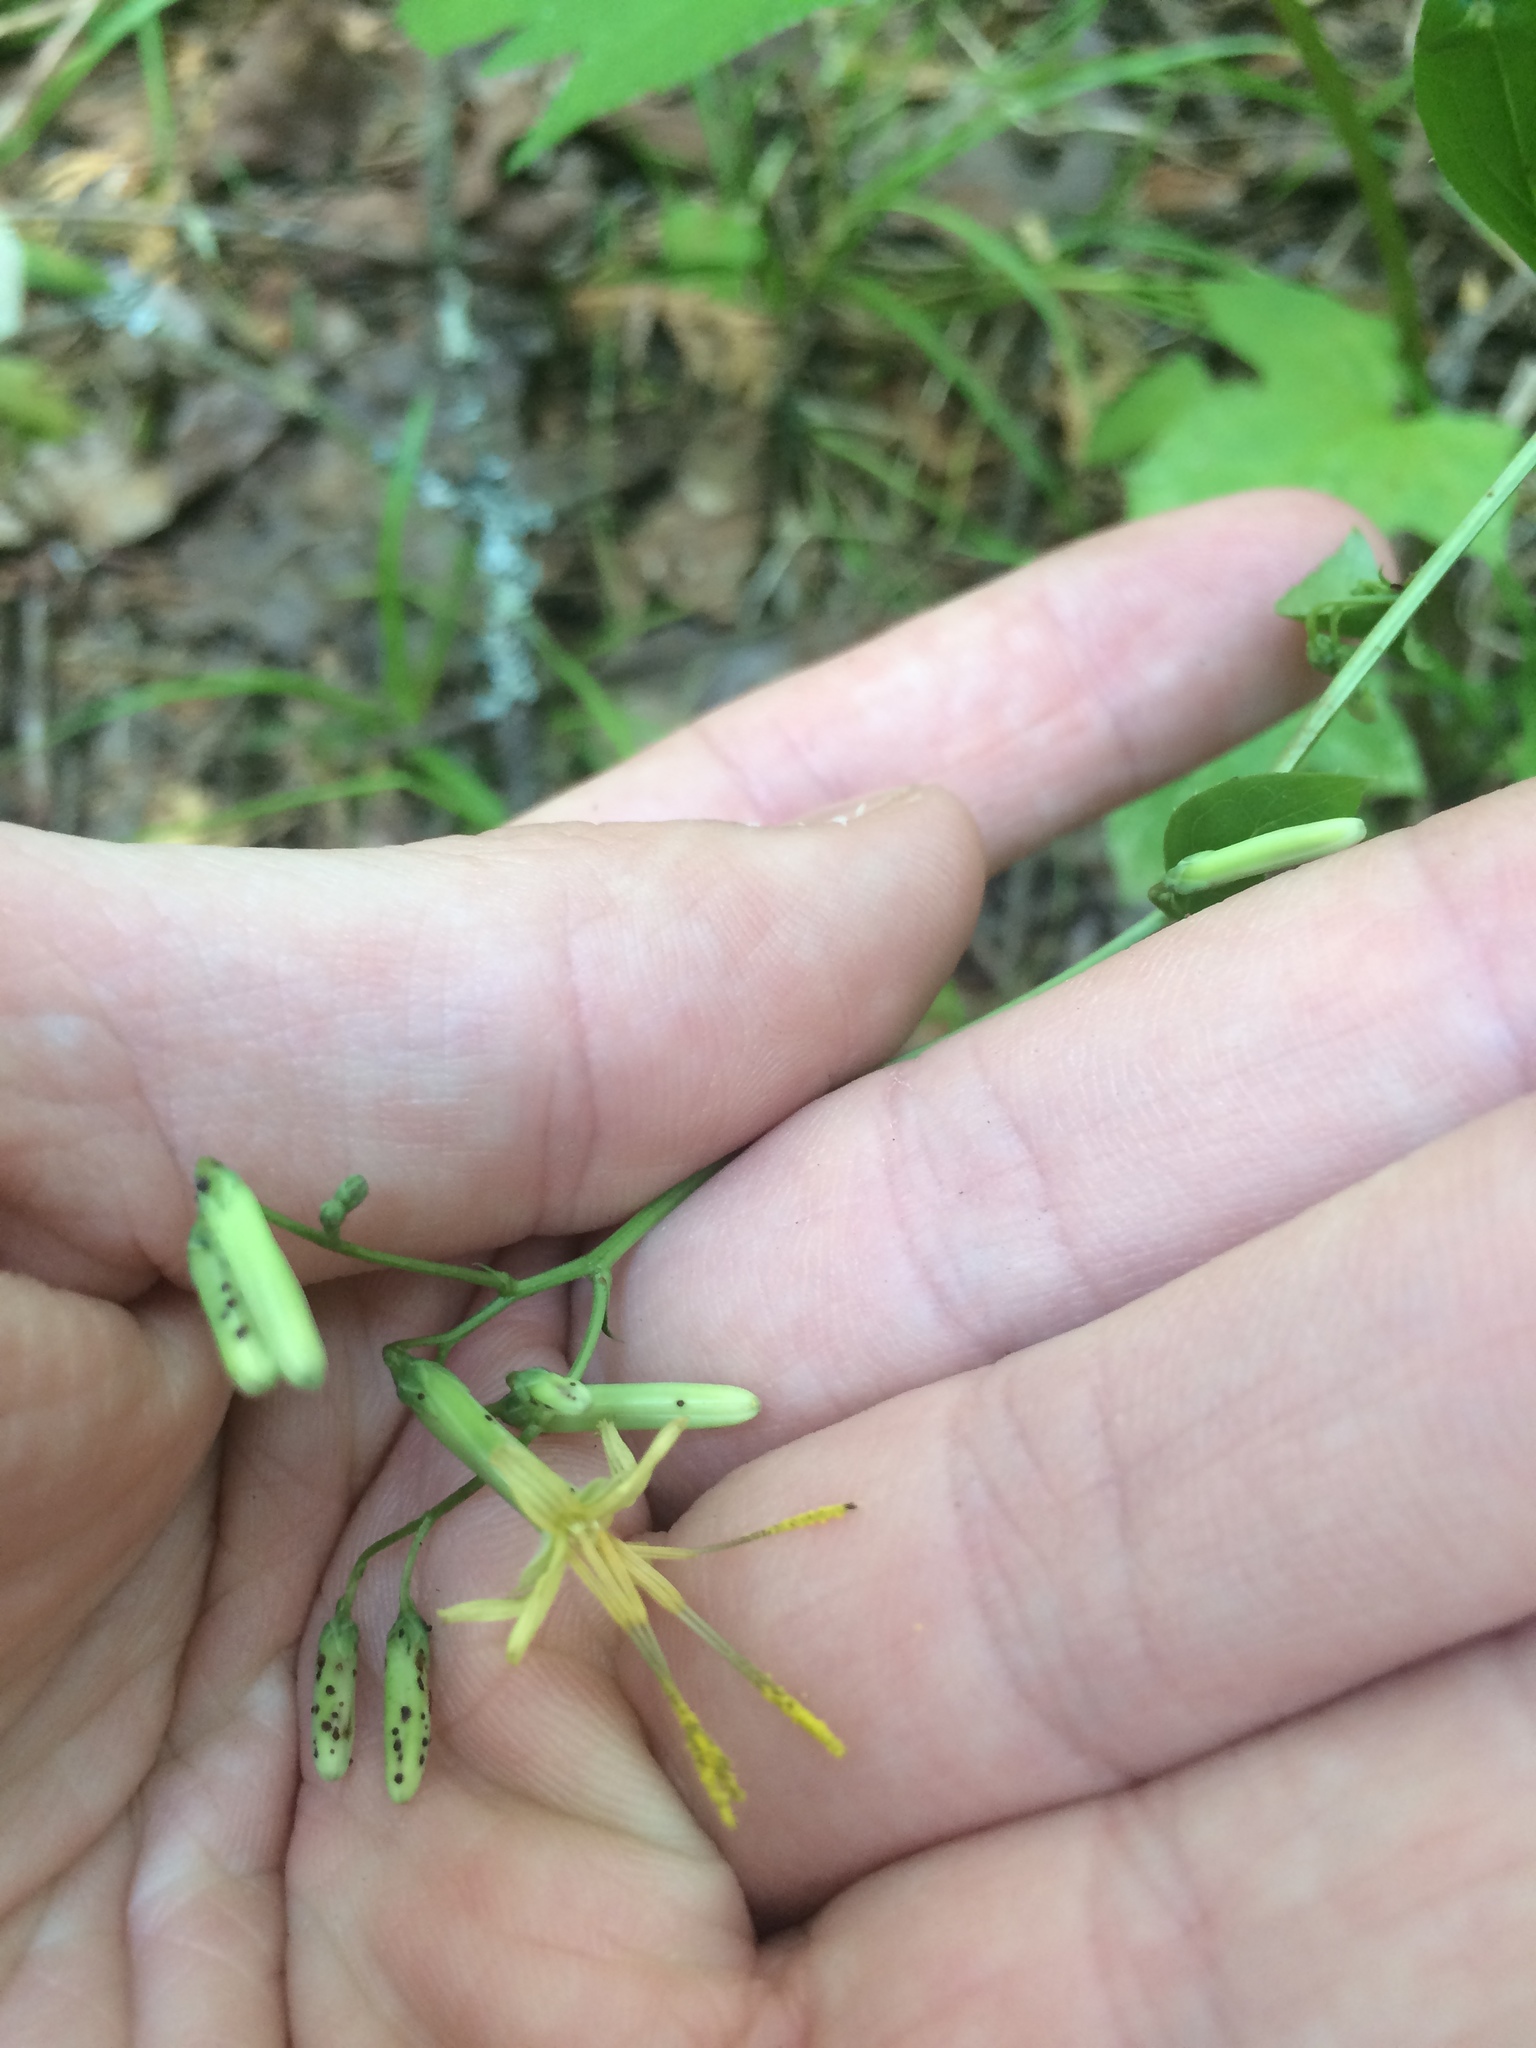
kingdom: Plantae
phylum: Tracheophyta
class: Magnoliopsida
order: Asterales
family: Asteraceae
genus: Nabalus
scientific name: Nabalus altissima
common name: Tall rattlesnakeroot
